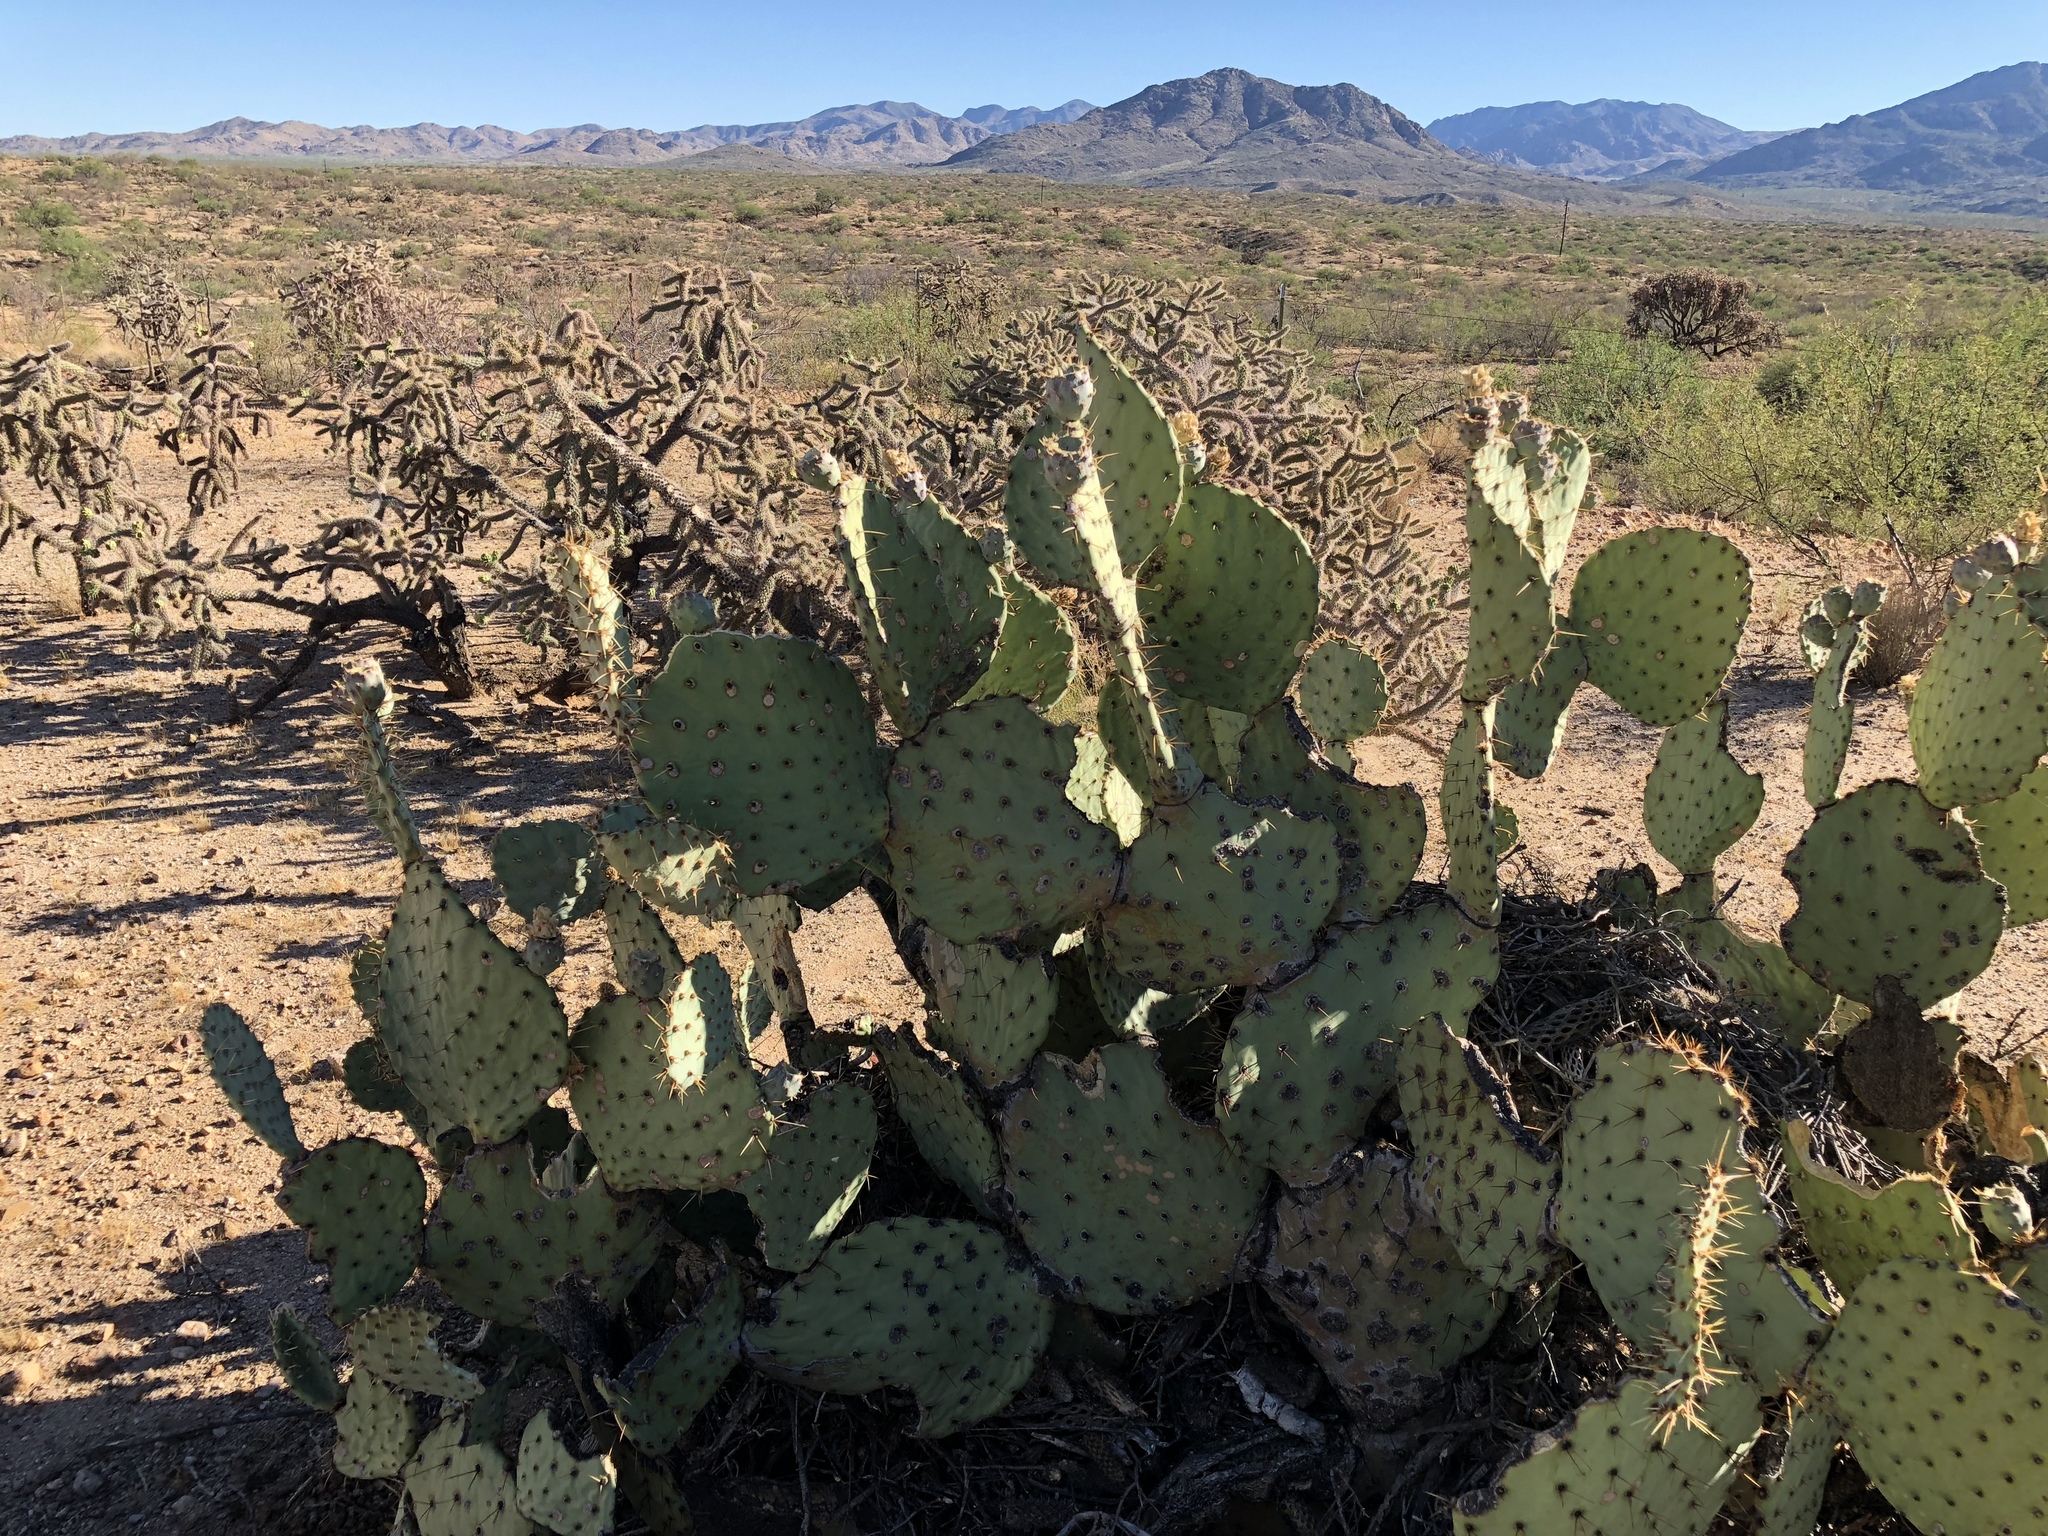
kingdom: Plantae
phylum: Tracheophyta
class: Magnoliopsida
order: Caryophyllales
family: Cactaceae
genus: Opuntia
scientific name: Opuntia engelmannii
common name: Cactus-apple
